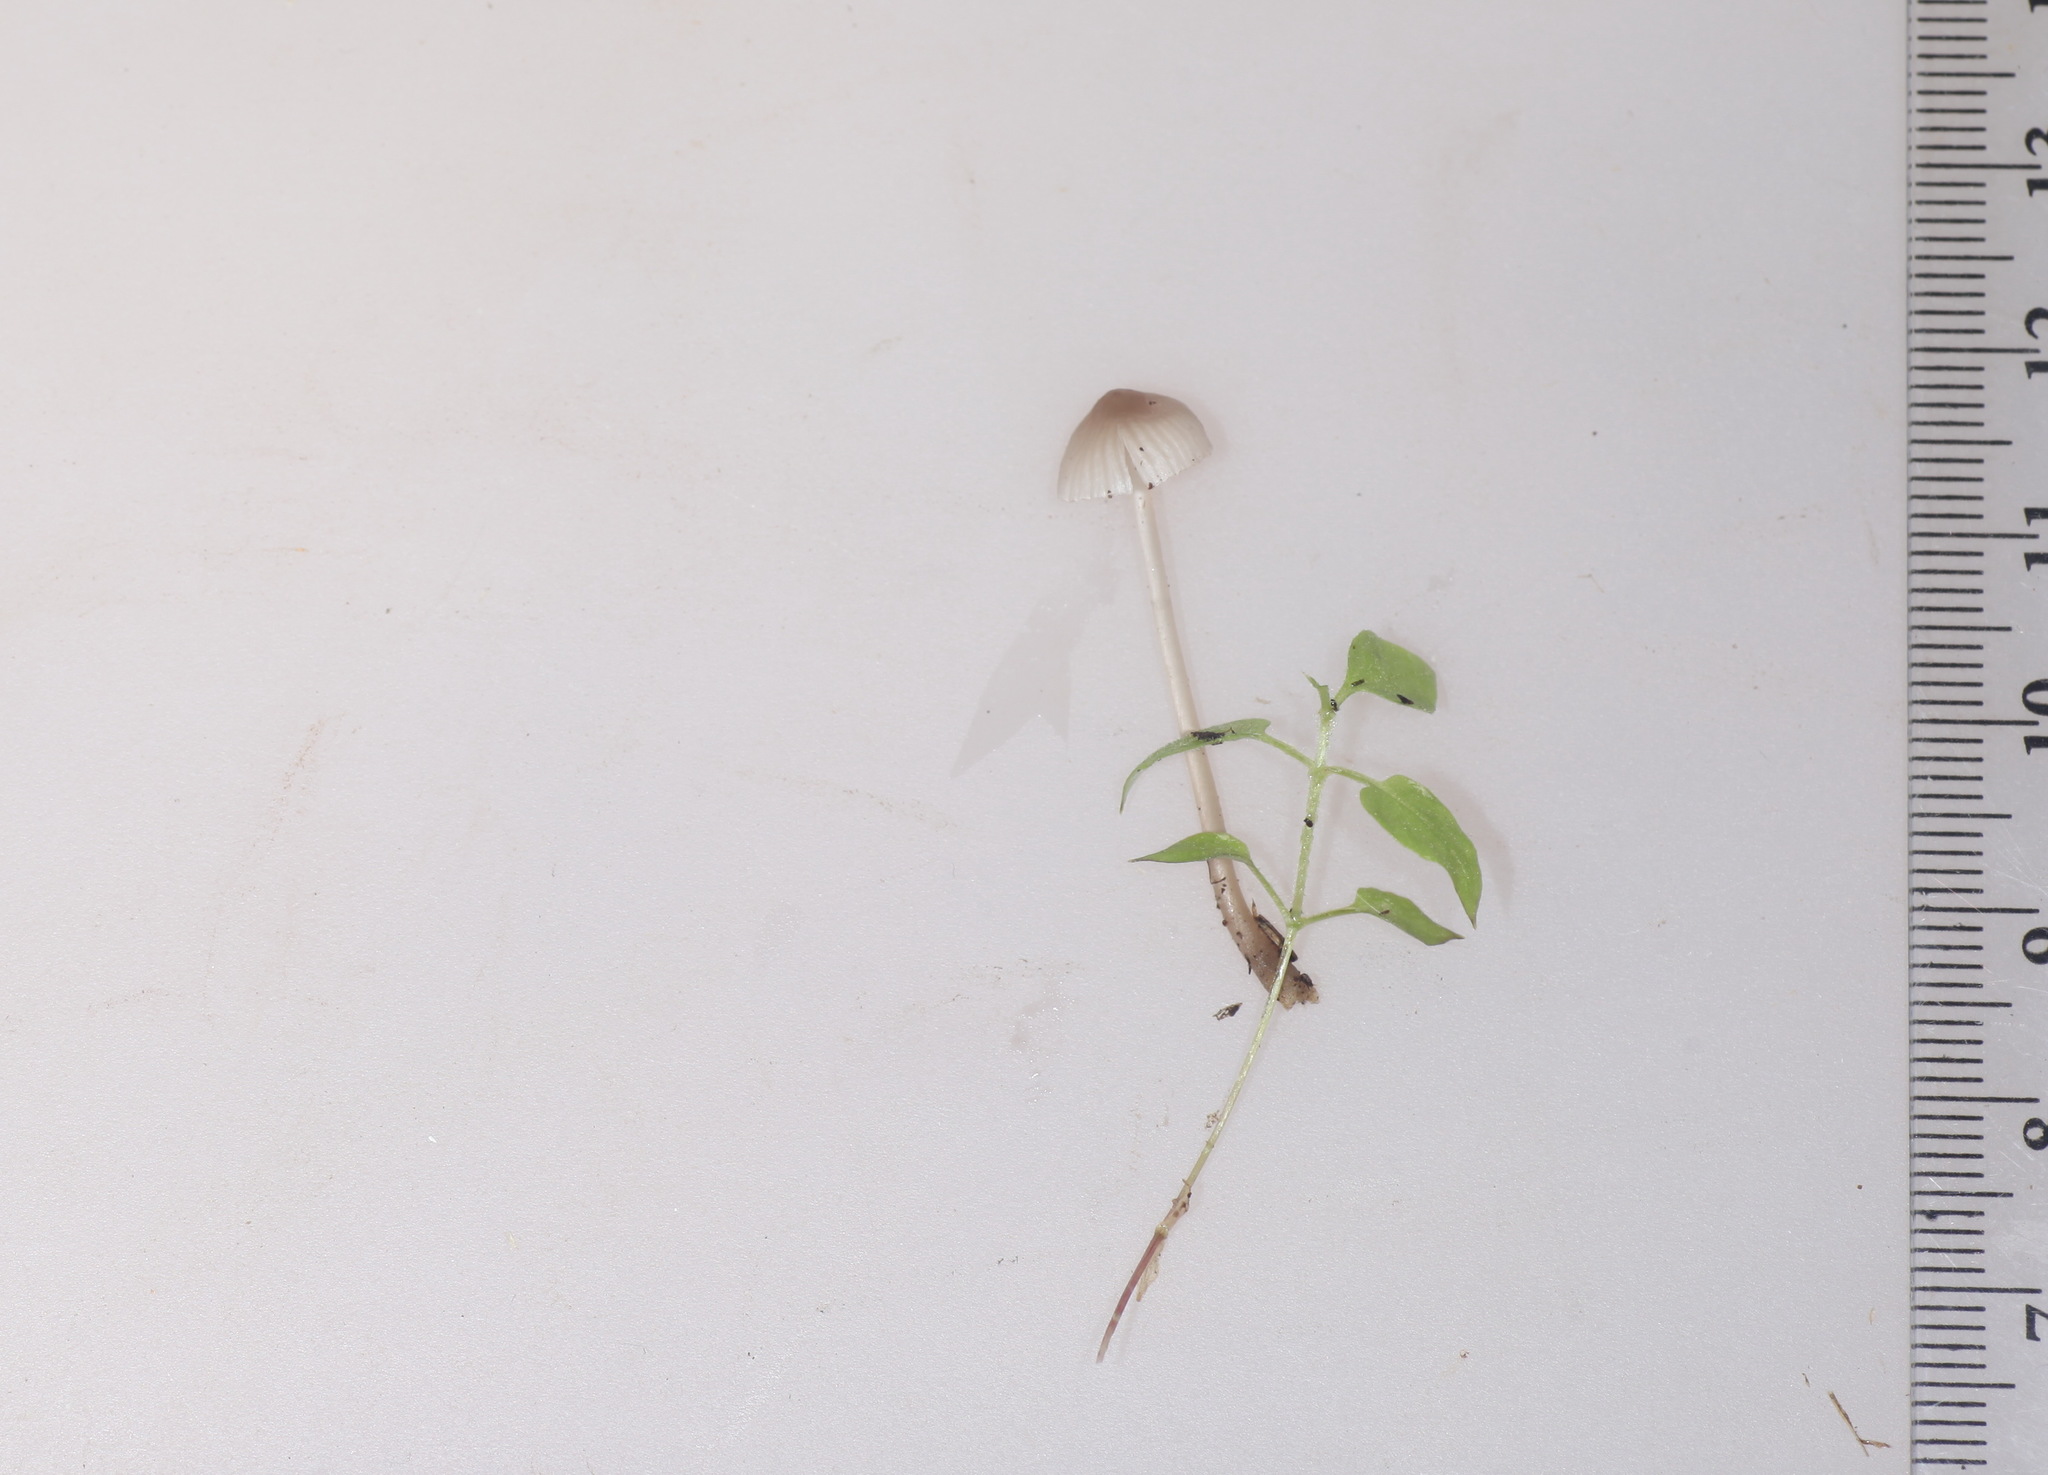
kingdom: Fungi
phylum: Basidiomycota
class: Agaricomycetes
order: Agaricales
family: Mycenaceae
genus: Mycena
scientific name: Mycena rubromarginata
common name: Red edge bonnet
